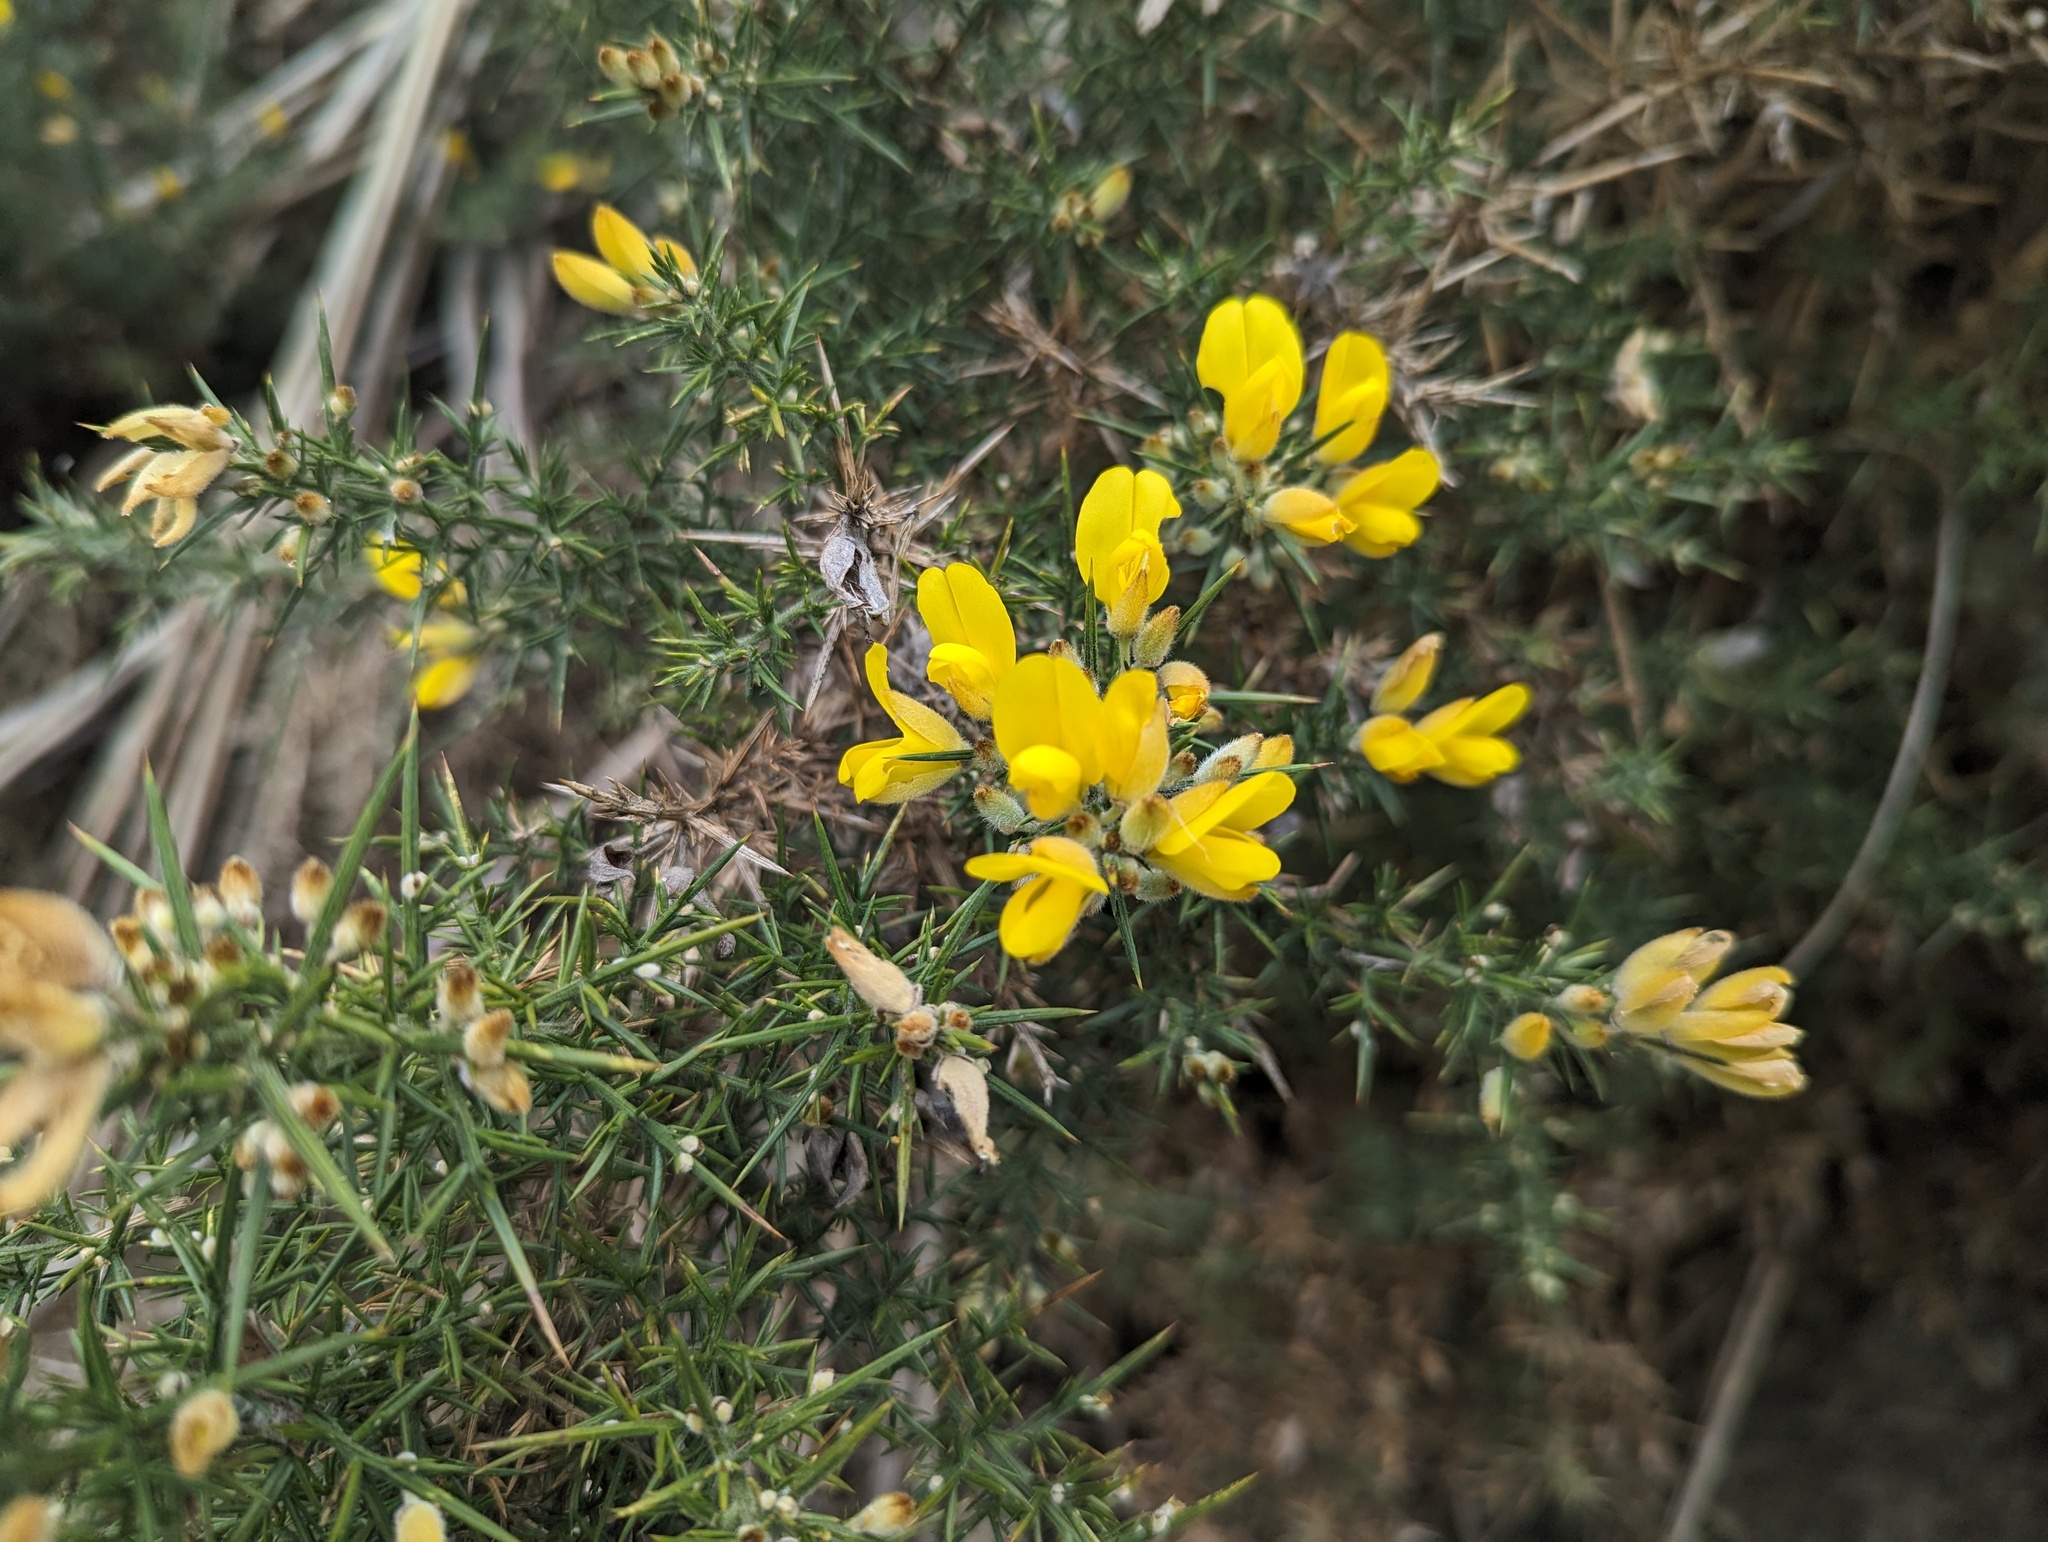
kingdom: Plantae
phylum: Tracheophyta
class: Magnoliopsida
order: Fabales
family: Fabaceae
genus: Ulex
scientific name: Ulex europaeus
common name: Common gorse
